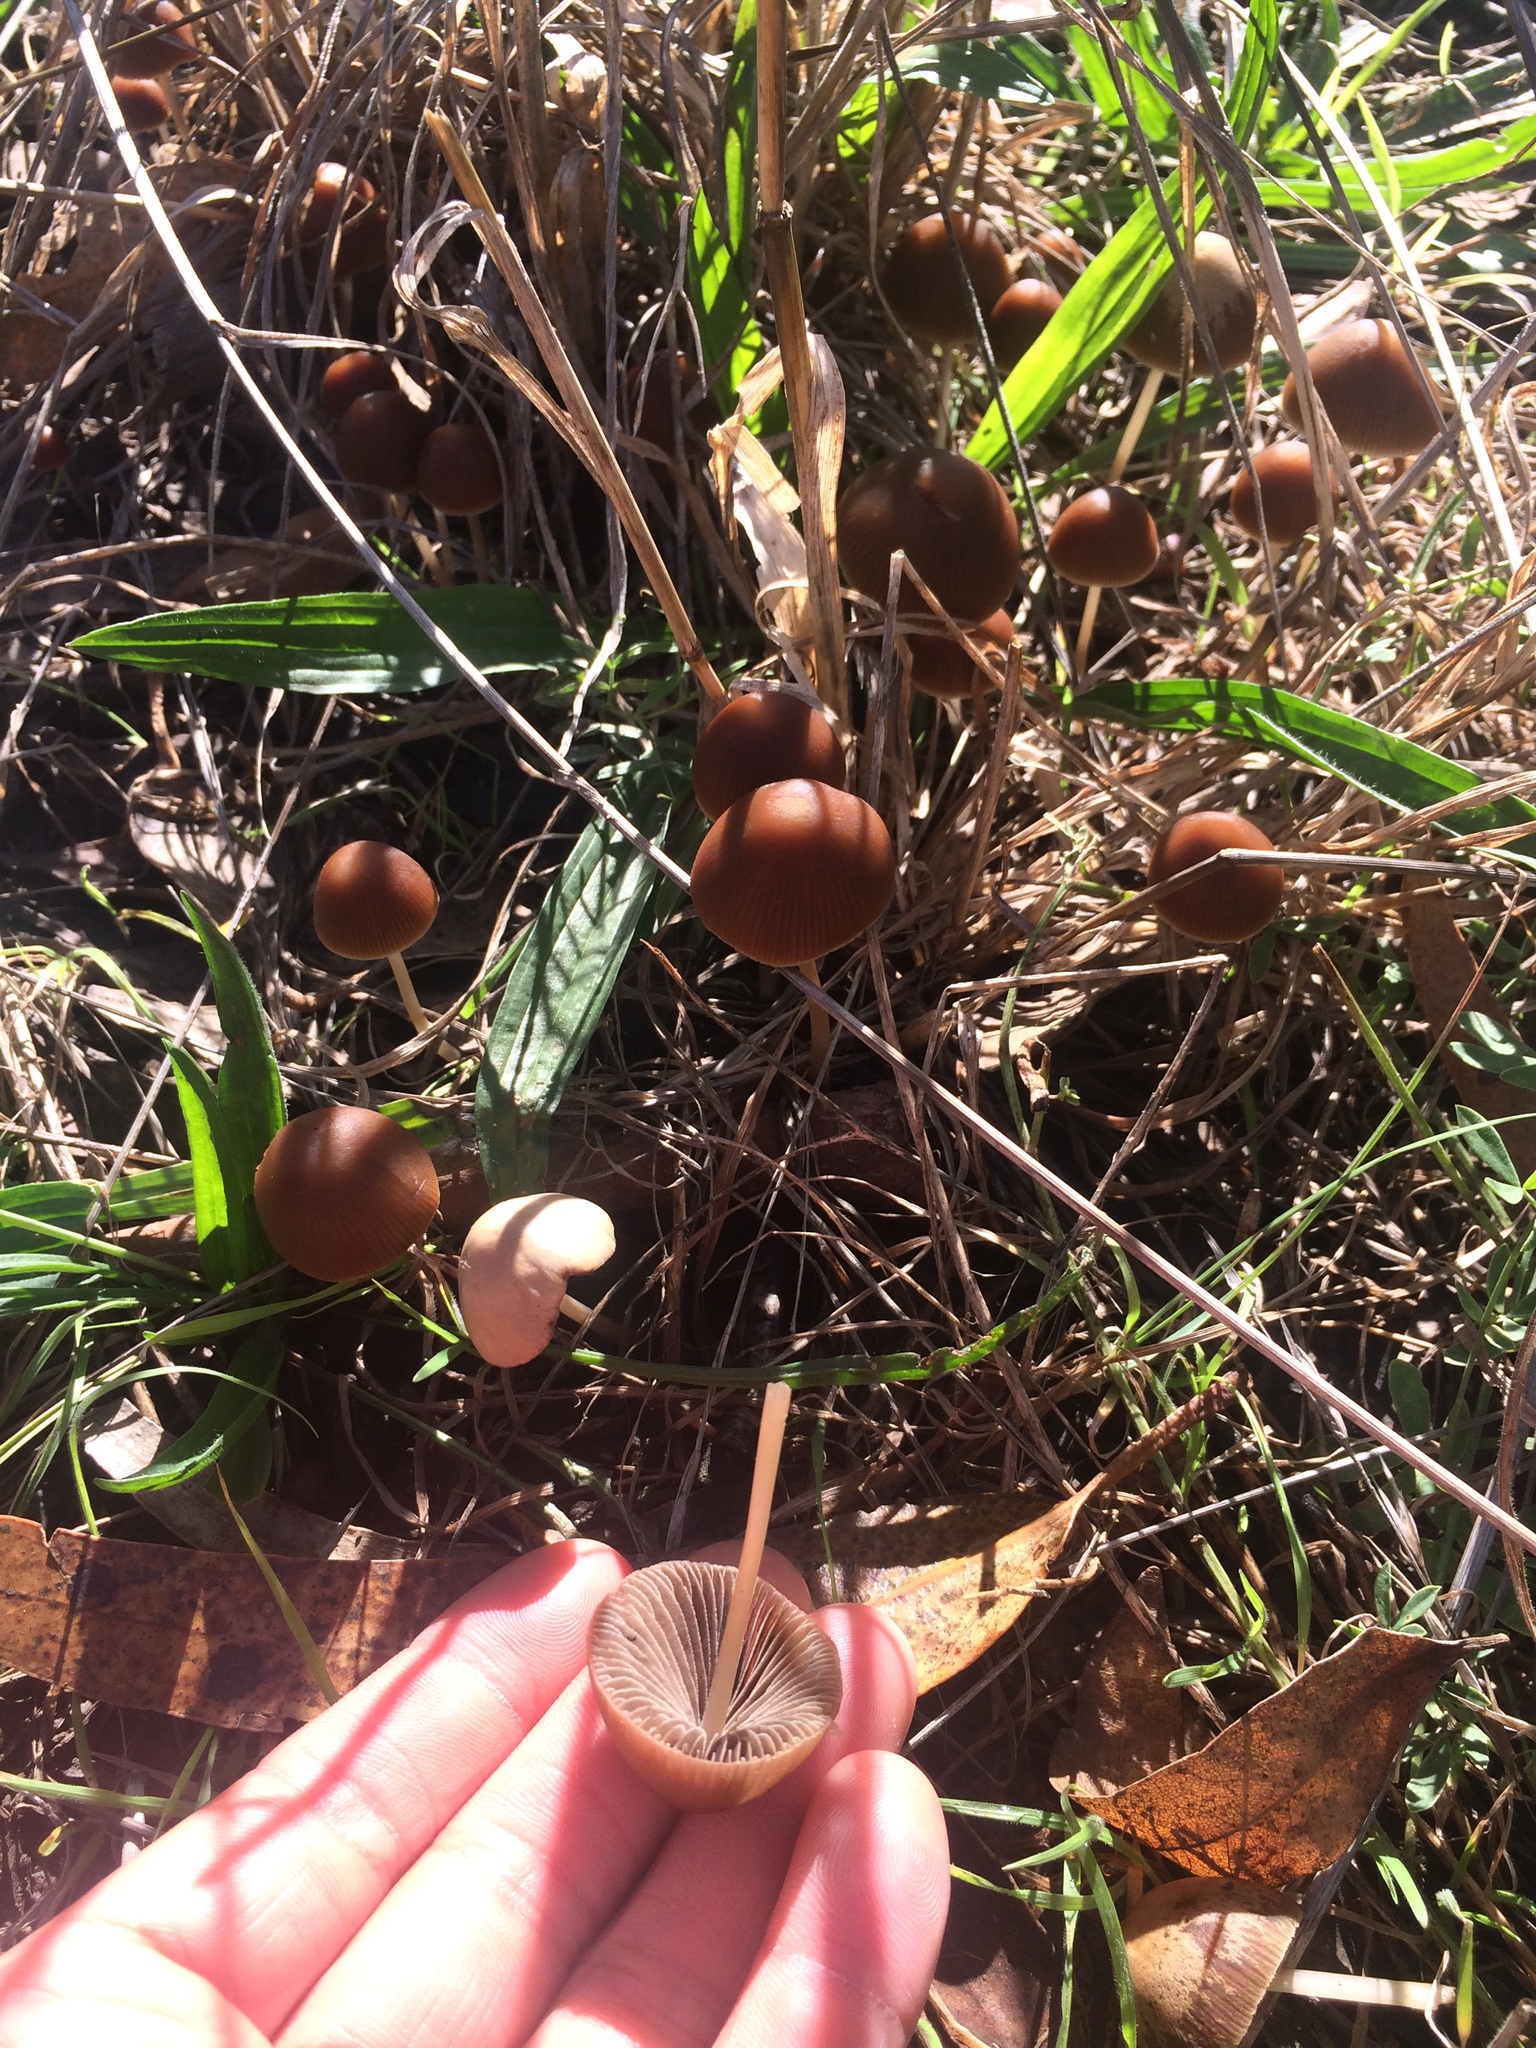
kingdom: Fungi
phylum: Basidiomycota
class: Agaricomycetes
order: Agaricales
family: Psathyrellaceae
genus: Psathyrella
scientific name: Psathyrella corrugis
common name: Red edge brittlestem
